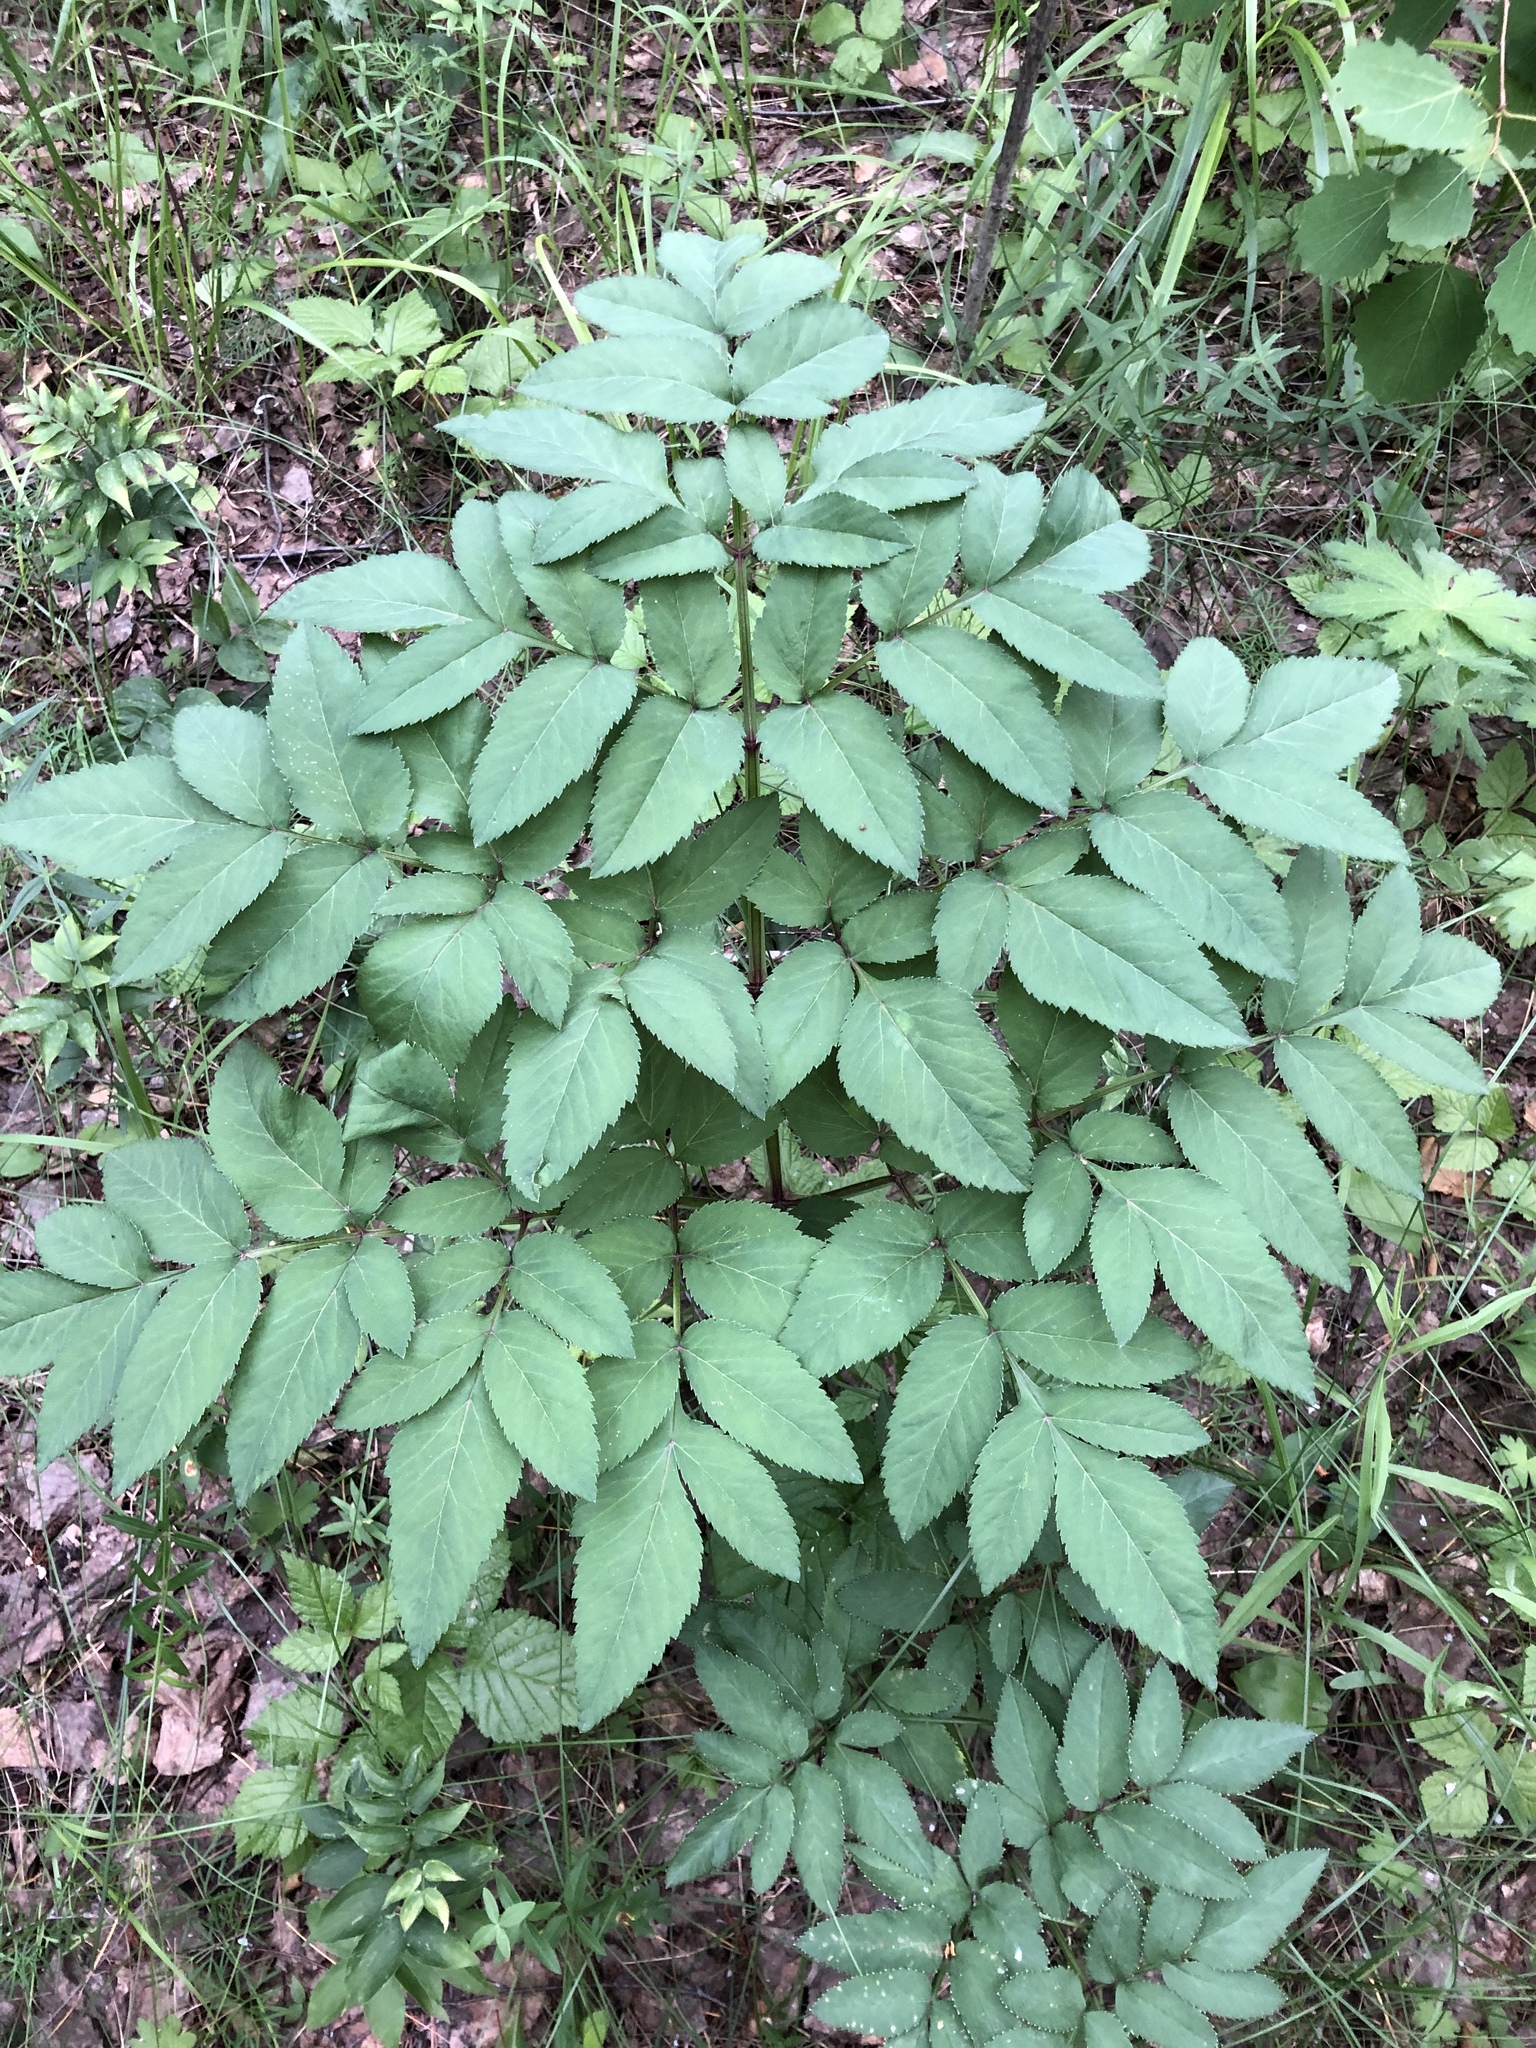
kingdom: Plantae
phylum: Tracheophyta
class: Magnoliopsida
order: Apiales
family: Apiaceae
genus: Angelica
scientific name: Angelica sylvestris
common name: Wild angelica
